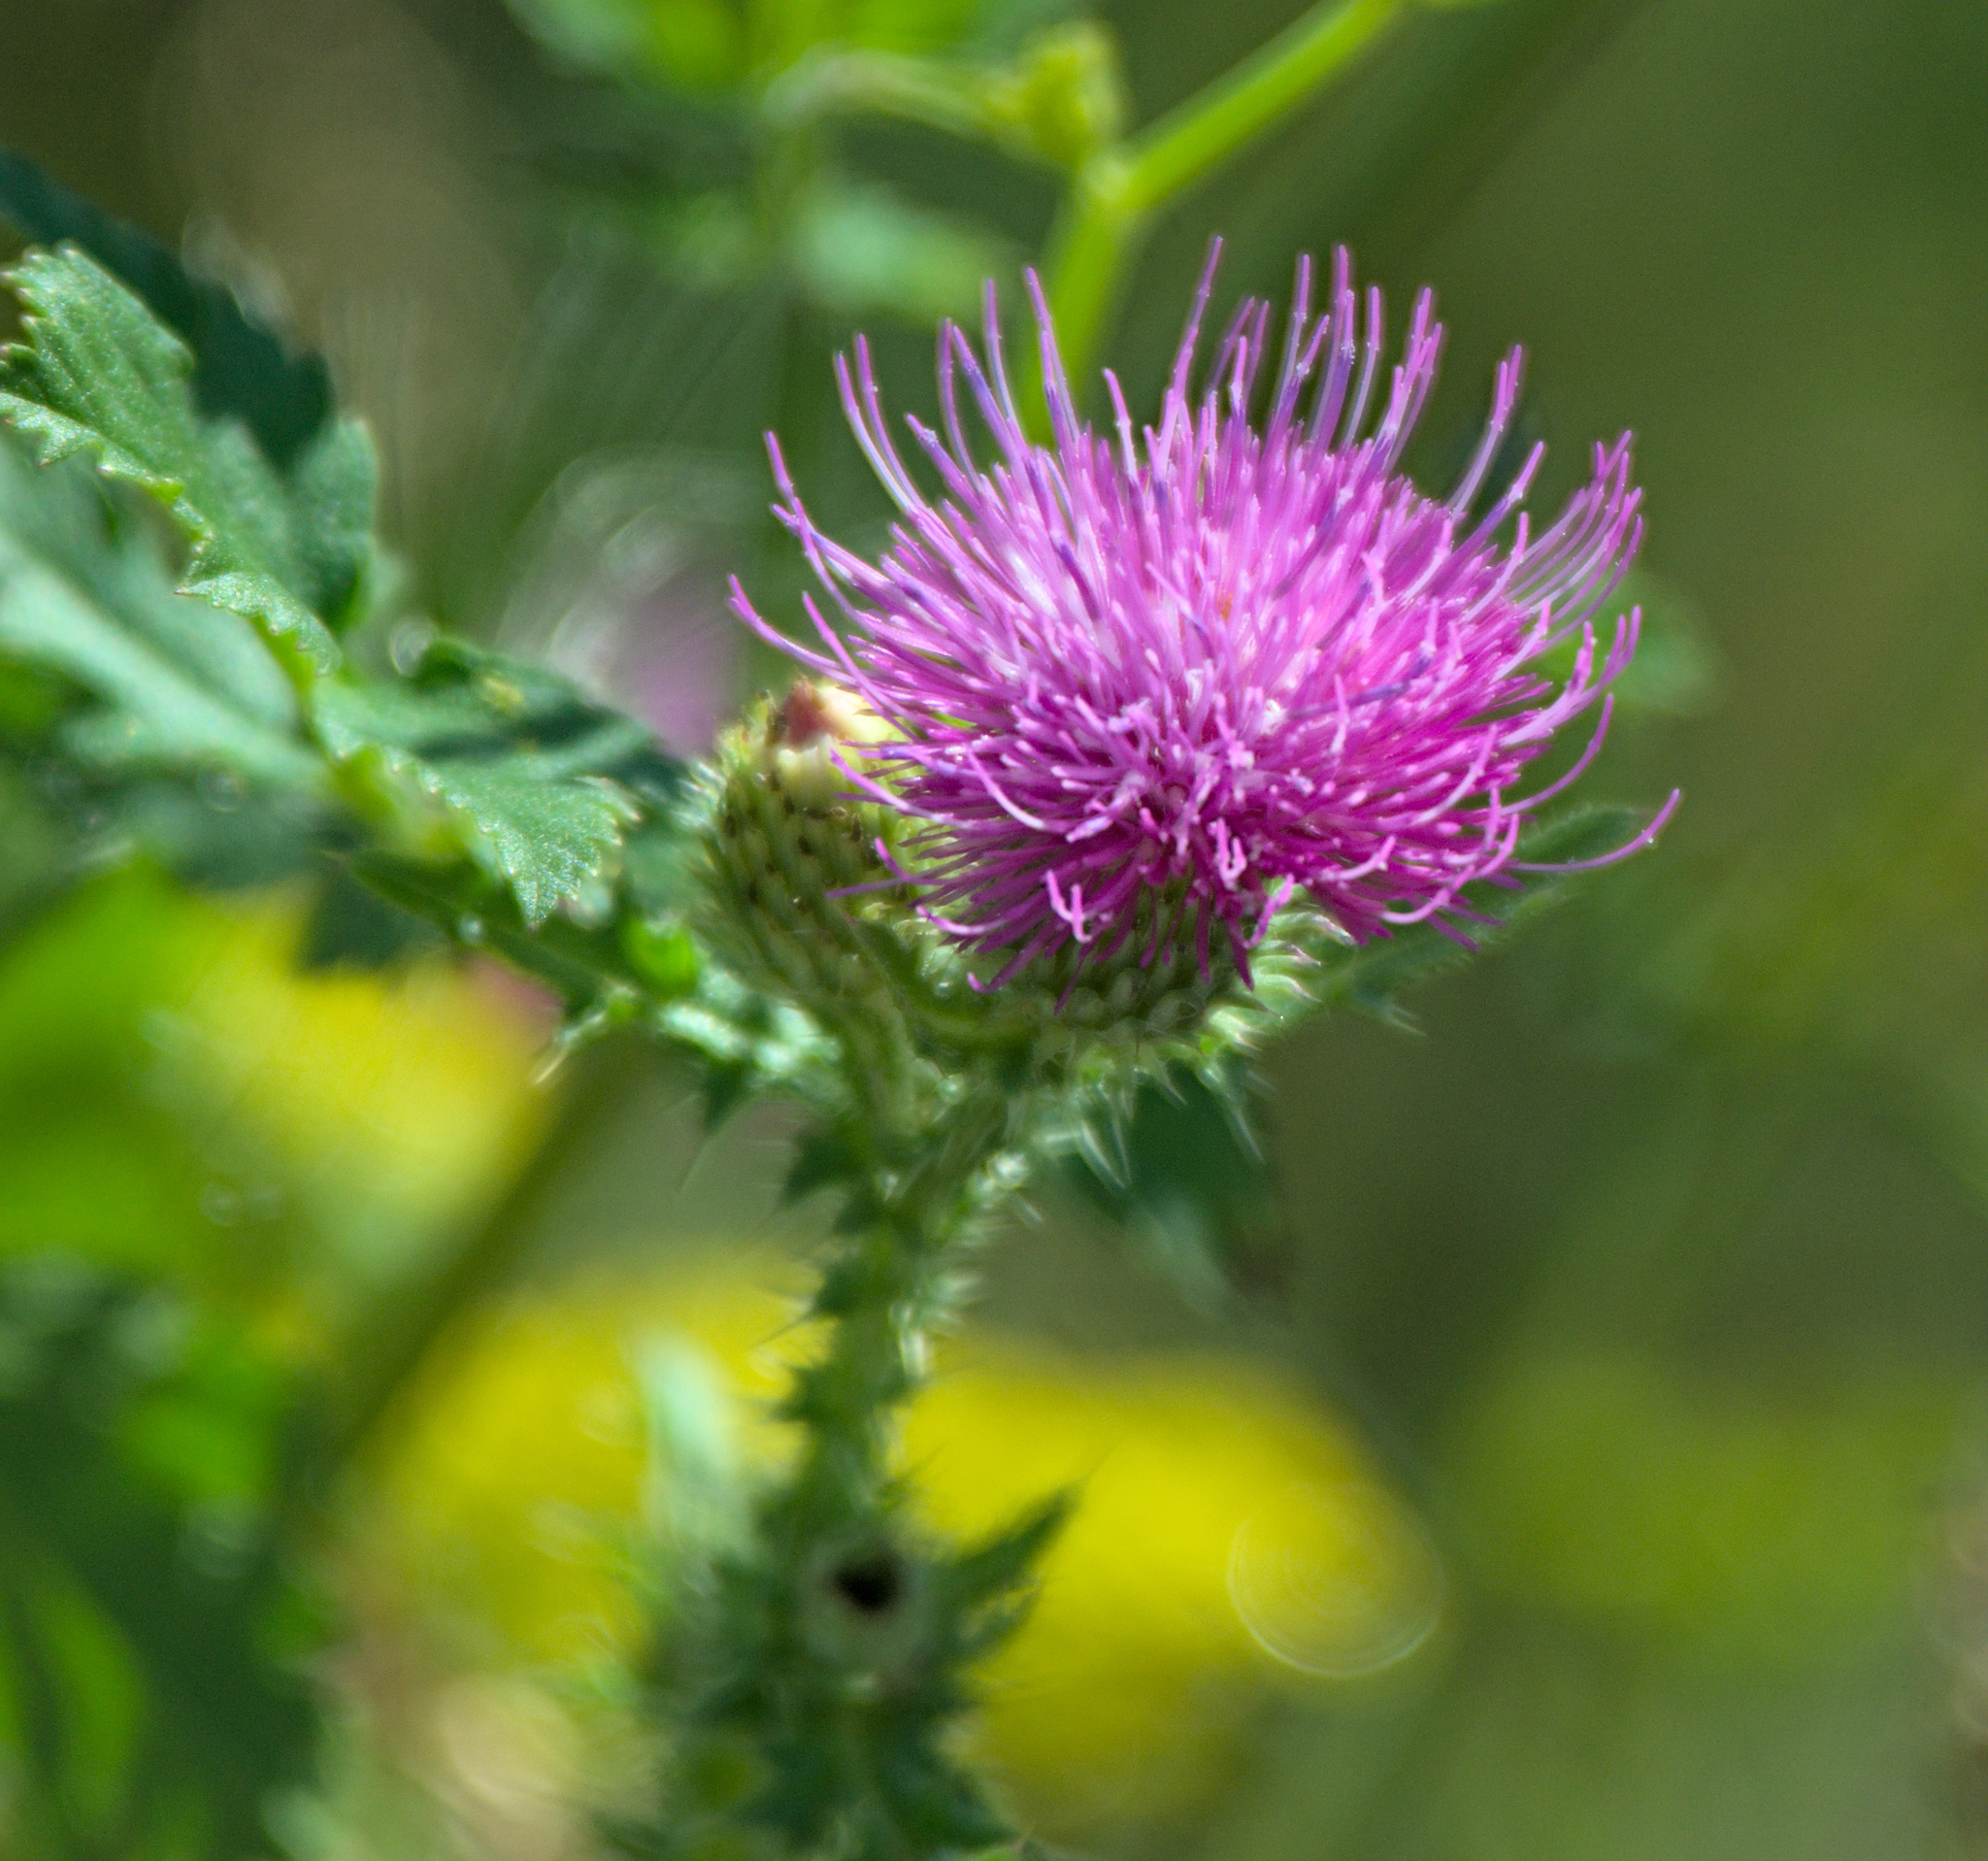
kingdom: Plantae
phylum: Tracheophyta
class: Magnoliopsida
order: Asterales
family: Asteraceae
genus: Carduus
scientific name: Carduus acanthoides
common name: Plumeless thistle
